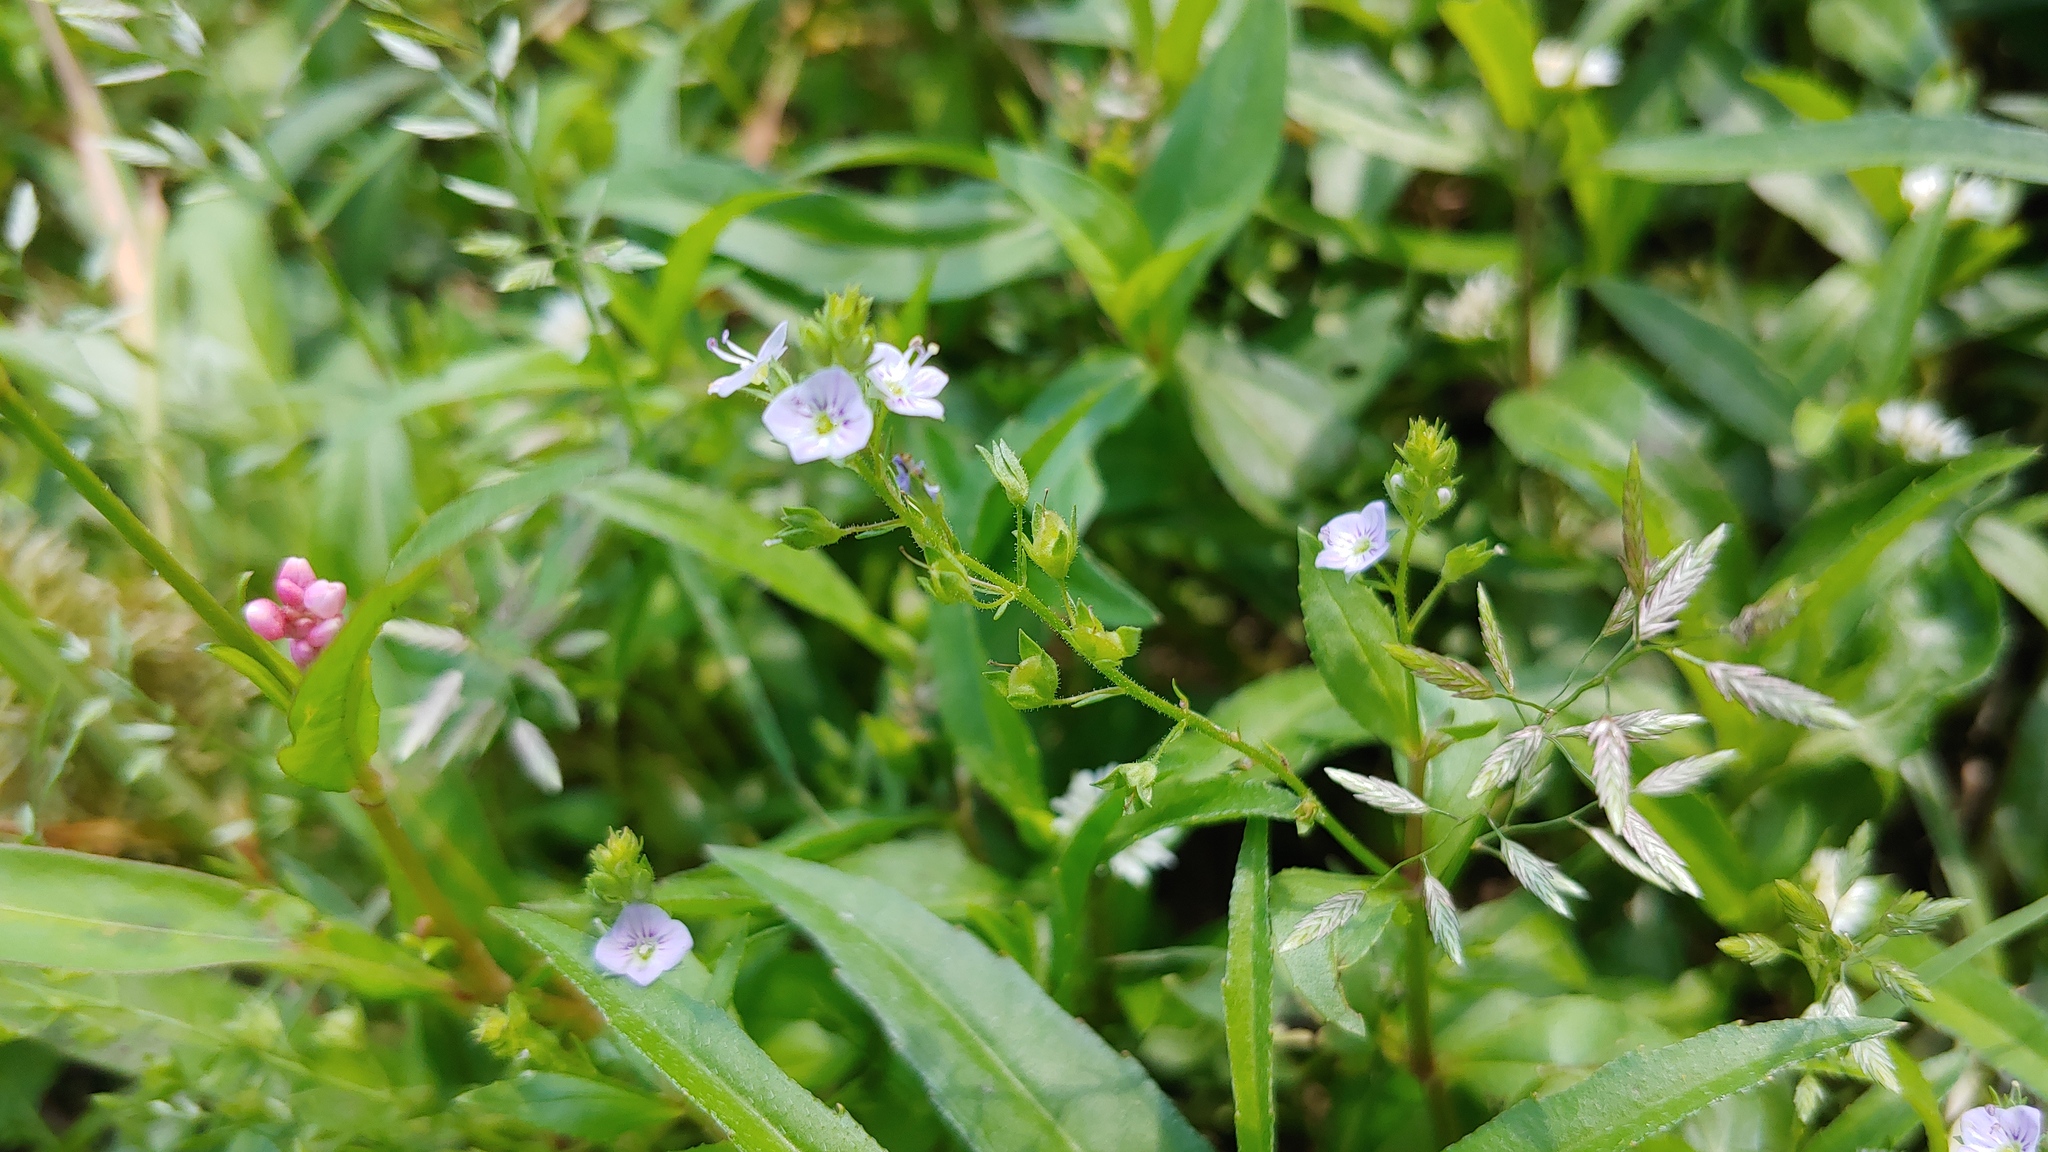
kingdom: Plantae
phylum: Tracheophyta
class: Magnoliopsida
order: Lamiales
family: Plantaginaceae
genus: Veronica
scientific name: Veronica catenata
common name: Pink water-speedwell
